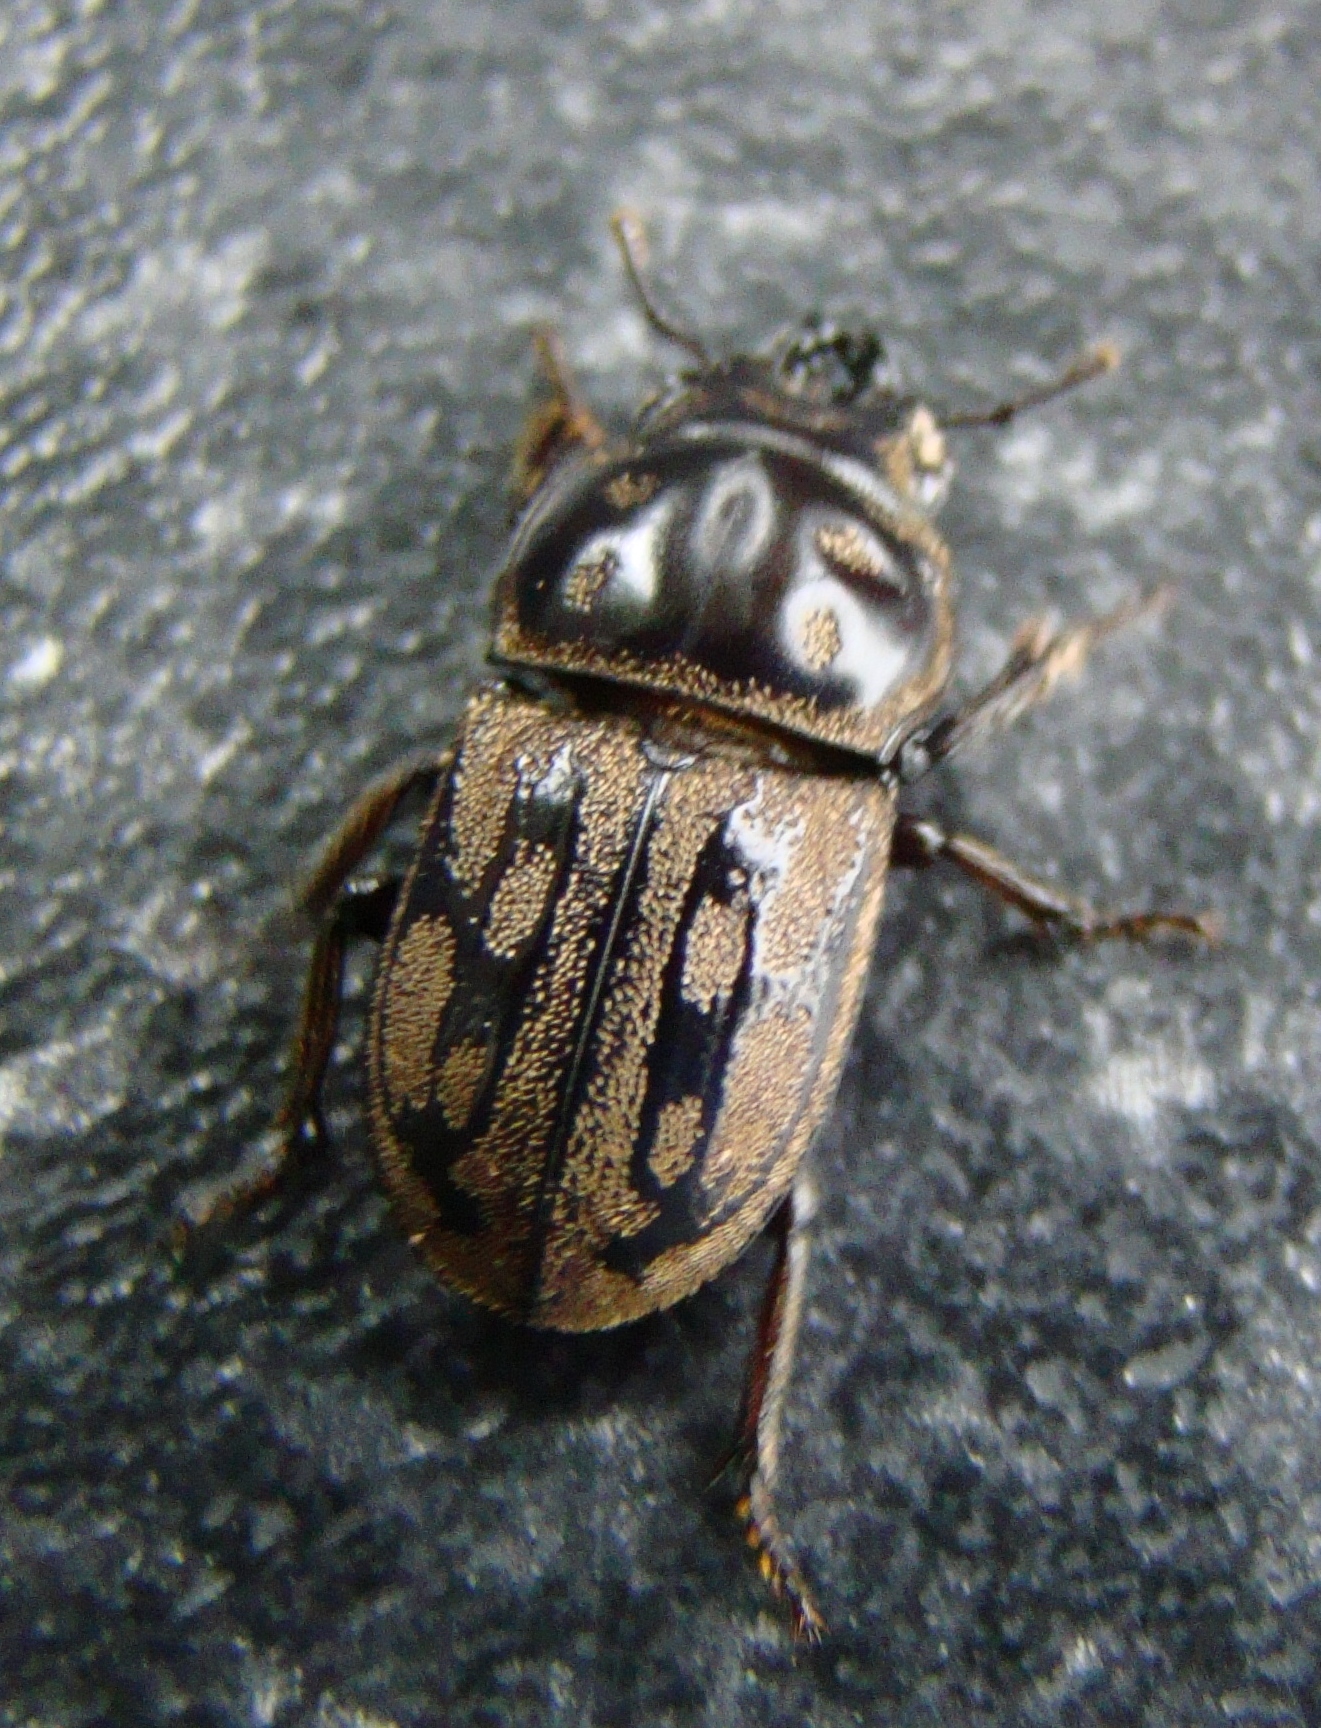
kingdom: Animalia
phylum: Arthropoda
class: Insecta
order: Coleoptera
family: Lucanidae
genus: Paralissotes
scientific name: Paralissotes reticulatus
